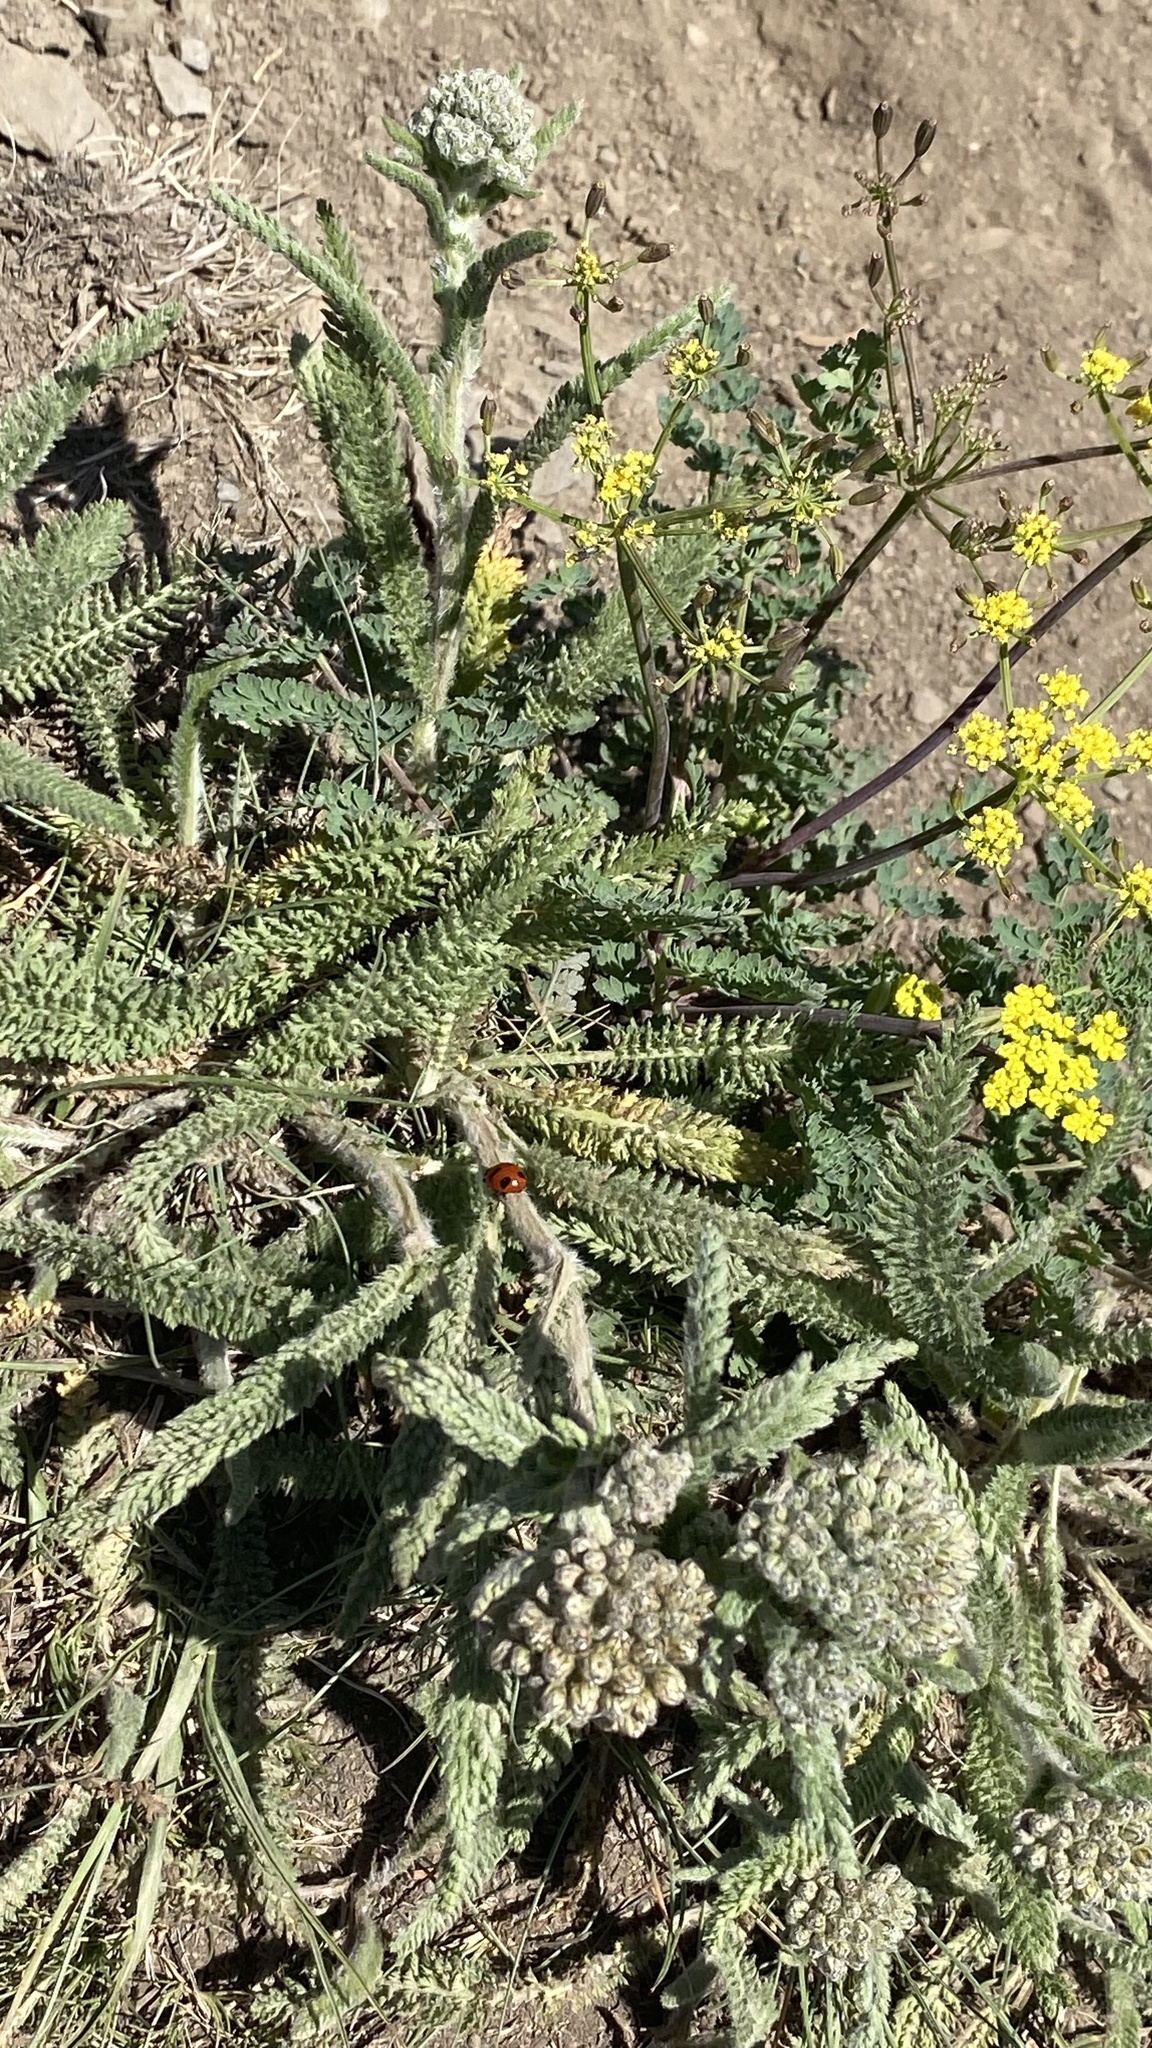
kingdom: Plantae
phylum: Tracheophyta
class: Magnoliopsida
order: Asterales
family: Asteraceae
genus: Achillea
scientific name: Achillea millefolium
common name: Yarrow
